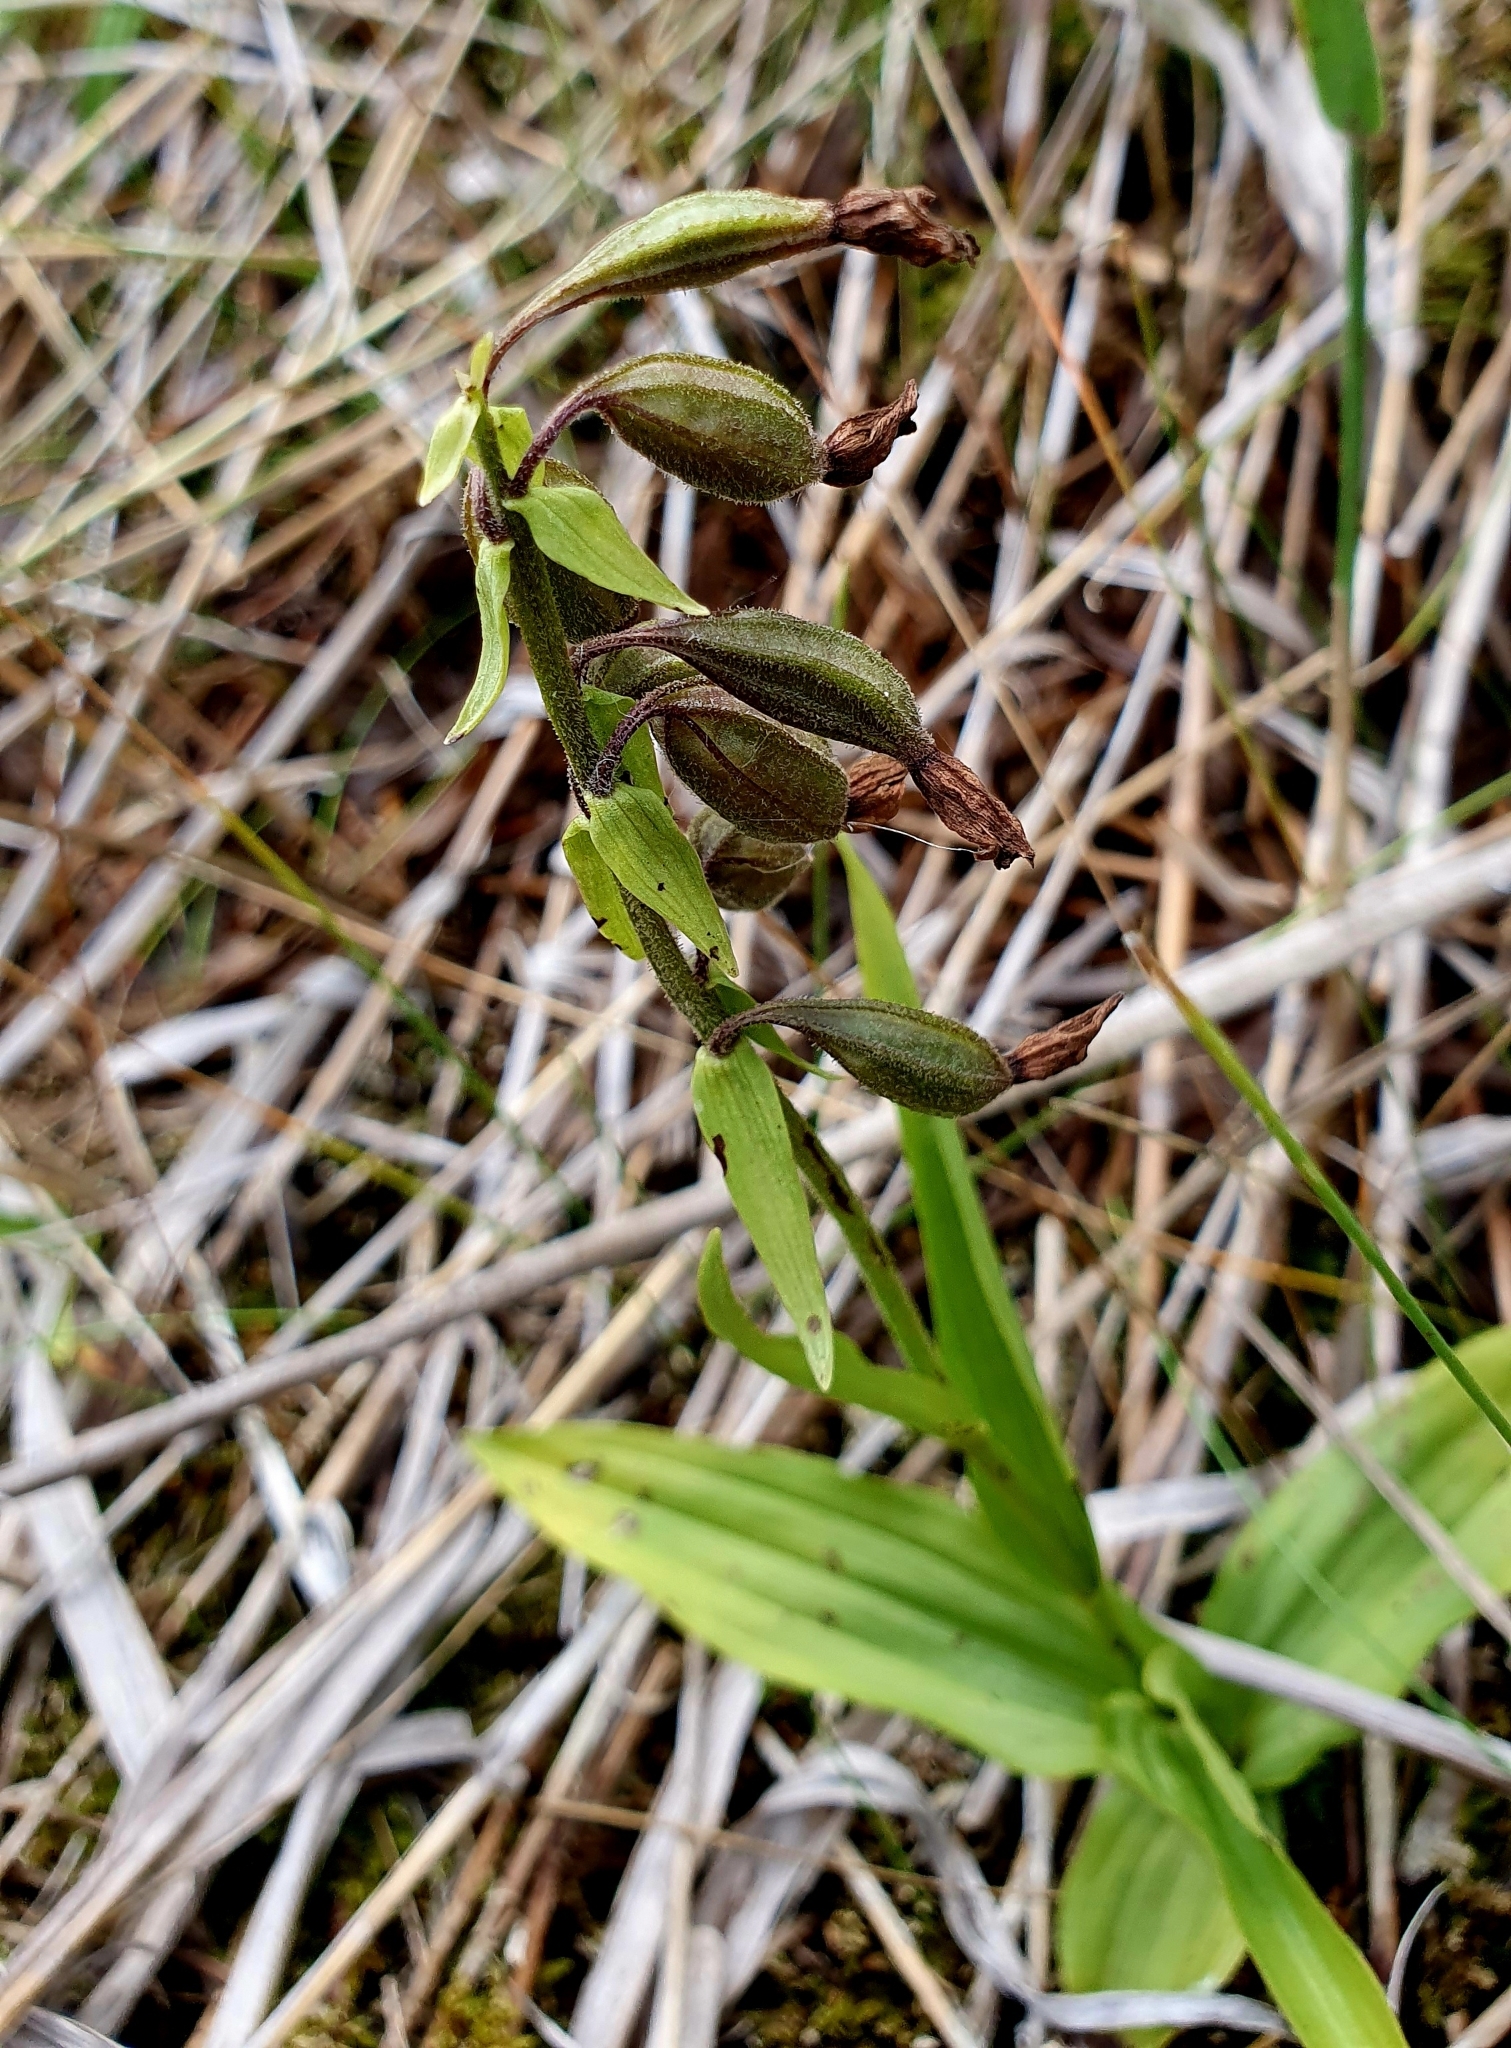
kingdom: Plantae
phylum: Tracheophyta
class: Liliopsida
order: Asparagales
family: Orchidaceae
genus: Epipactis
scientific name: Epipactis palustris
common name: Marsh helleborine
